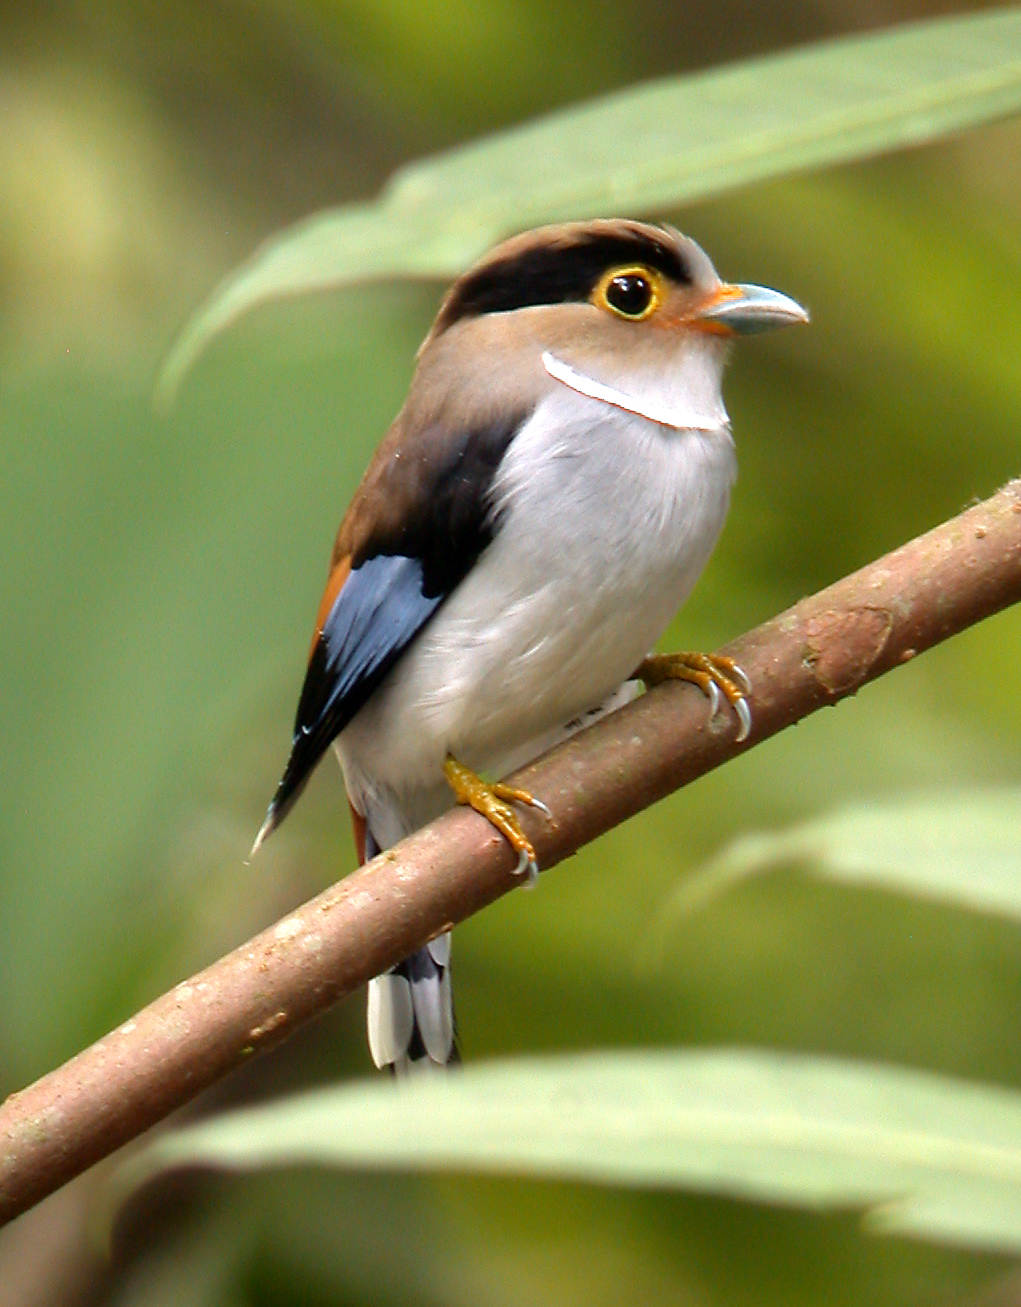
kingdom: Animalia
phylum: Chordata
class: Aves
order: Passeriformes
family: Eurylaimidae
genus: Serilophus
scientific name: Serilophus lunatus
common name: Silver-breasted broadbill
